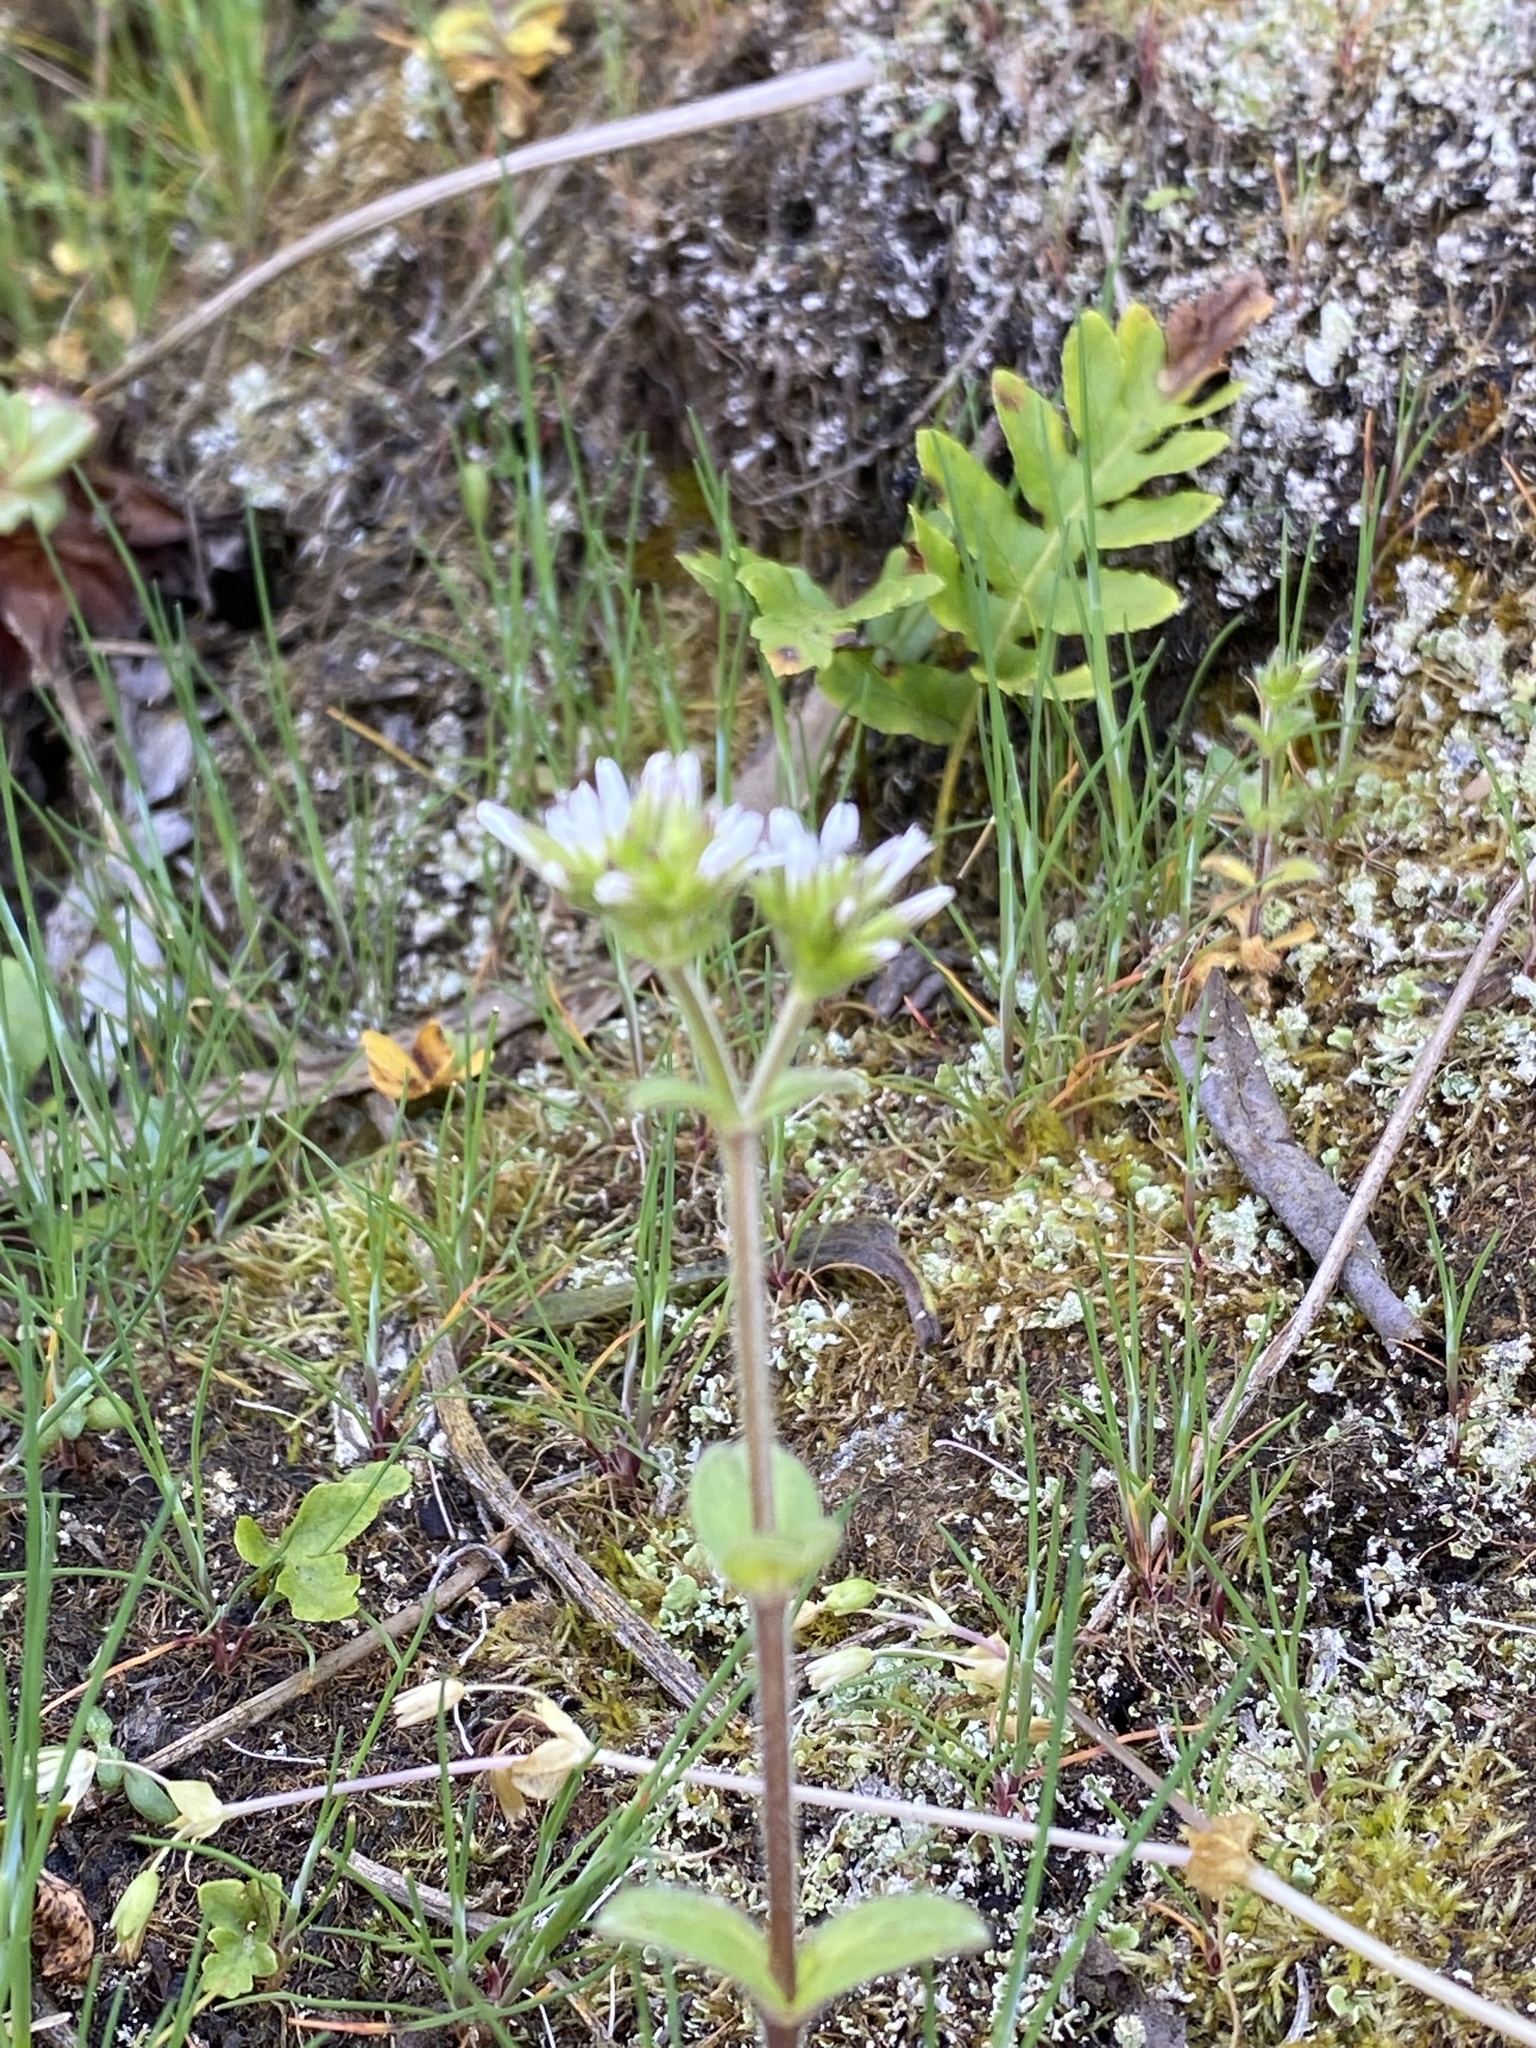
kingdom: Plantae
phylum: Tracheophyta
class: Magnoliopsida
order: Caryophyllales
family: Caryophyllaceae
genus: Cerastium
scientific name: Cerastium glomeratum
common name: Sticky chickweed
